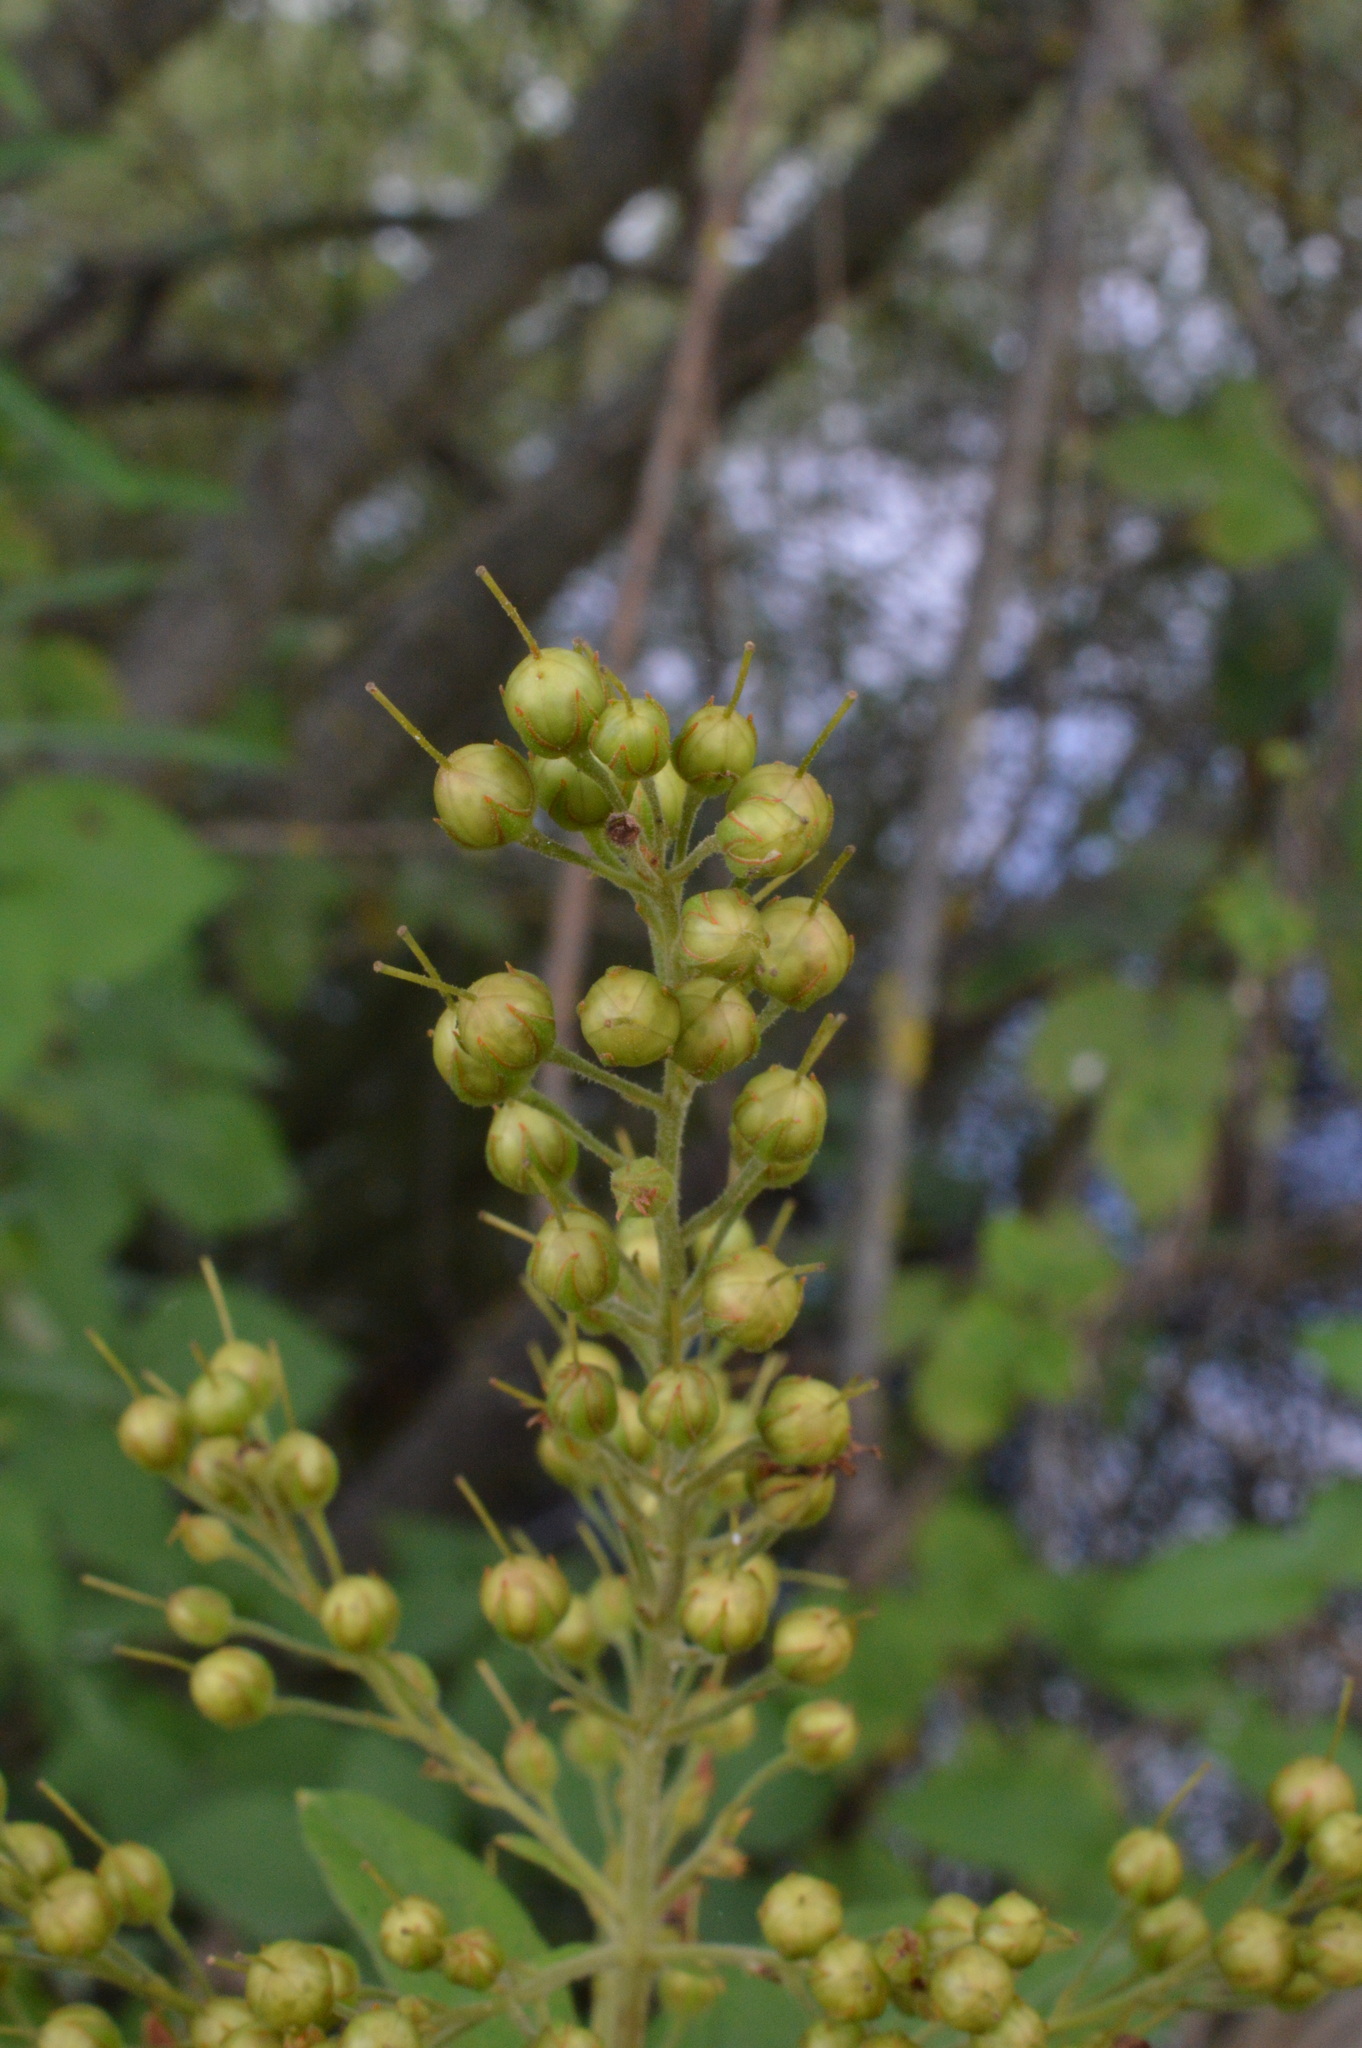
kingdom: Plantae
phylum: Tracheophyta
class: Magnoliopsida
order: Ericales
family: Primulaceae
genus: Lysimachia
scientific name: Lysimachia vulgaris
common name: Yellow loosestrife
